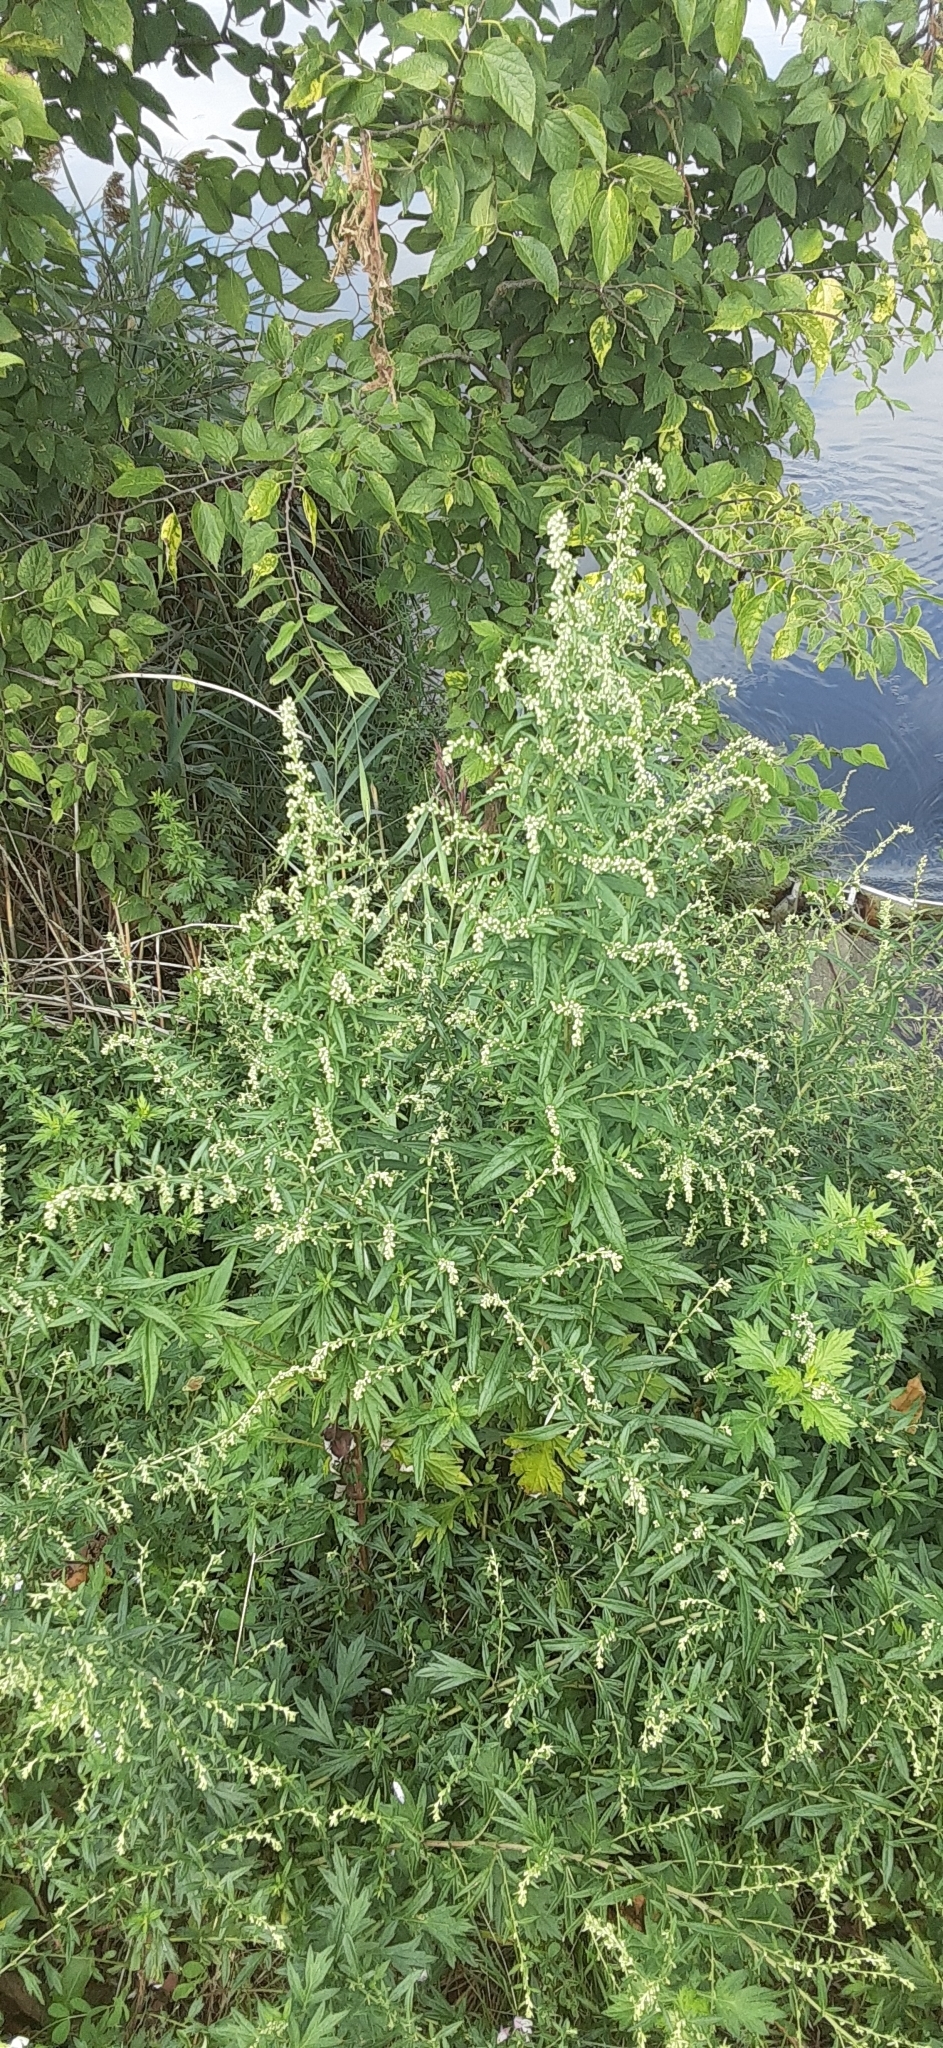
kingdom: Plantae
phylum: Tracheophyta
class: Magnoliopsida
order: Asterales
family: Asteraceae
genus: Artemisia
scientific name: Artemisia vulgaris
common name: Mugwort
